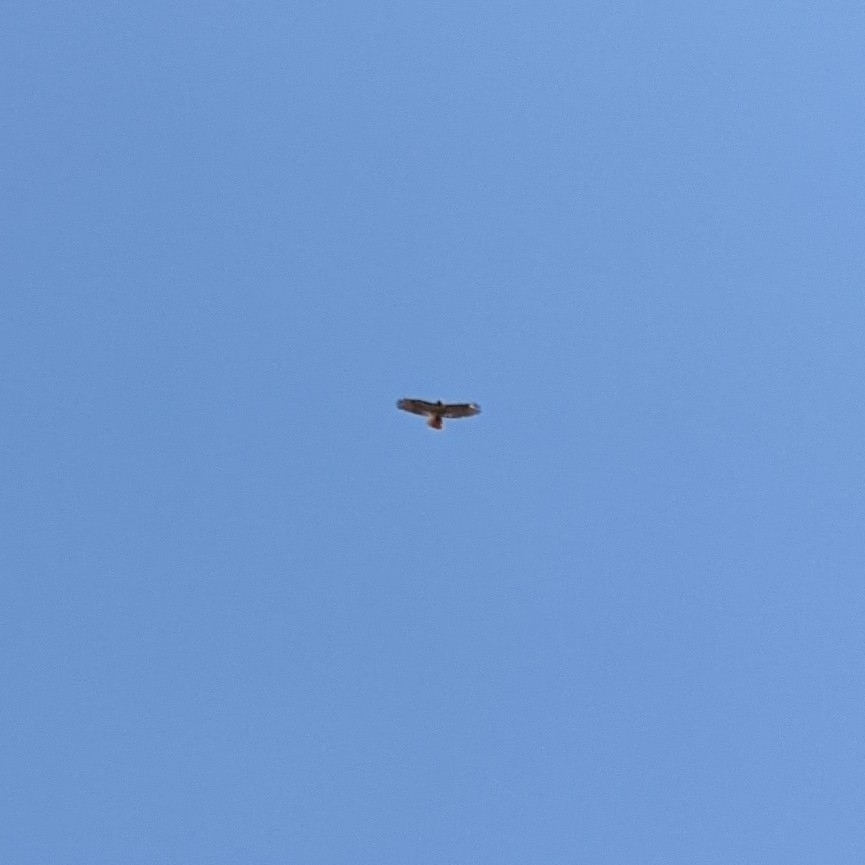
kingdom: Animalia
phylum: Chordata
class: Aves
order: Accipitriformes
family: Accipitridae
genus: Buteo
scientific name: Buteo jamaicensis
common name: Red-tailed hawk
